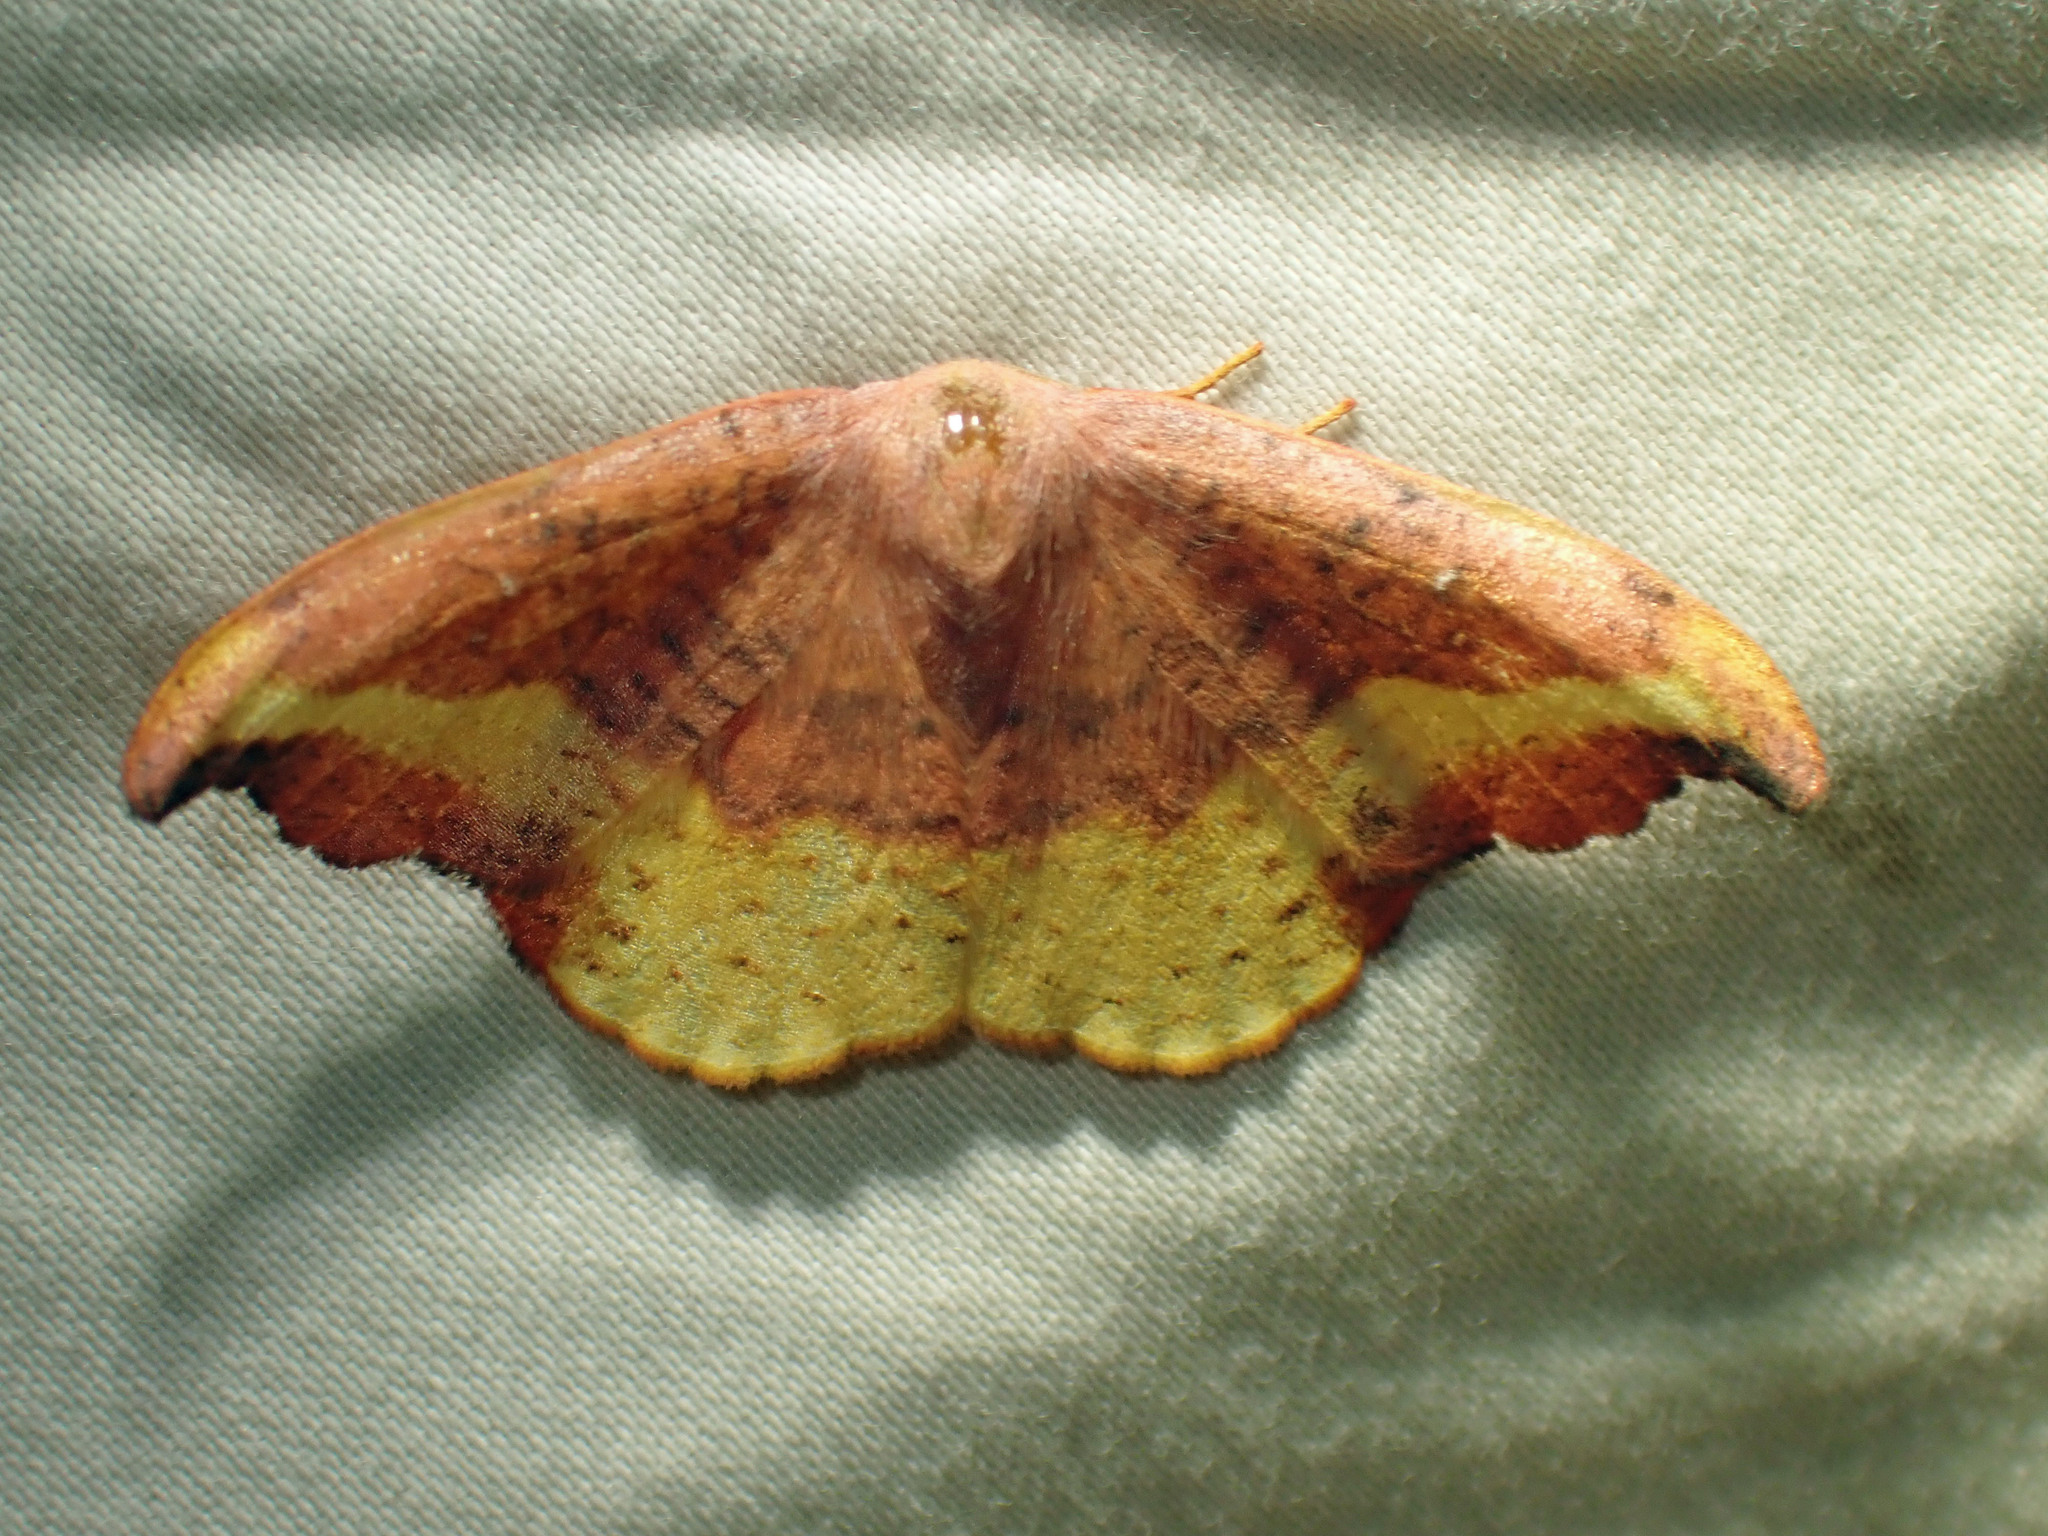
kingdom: Animalia
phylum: Arthropoda
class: Insecta
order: Lepidoptera
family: Drepanidae
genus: Oreta
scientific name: Oreta rosea
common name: Rose hooktip
